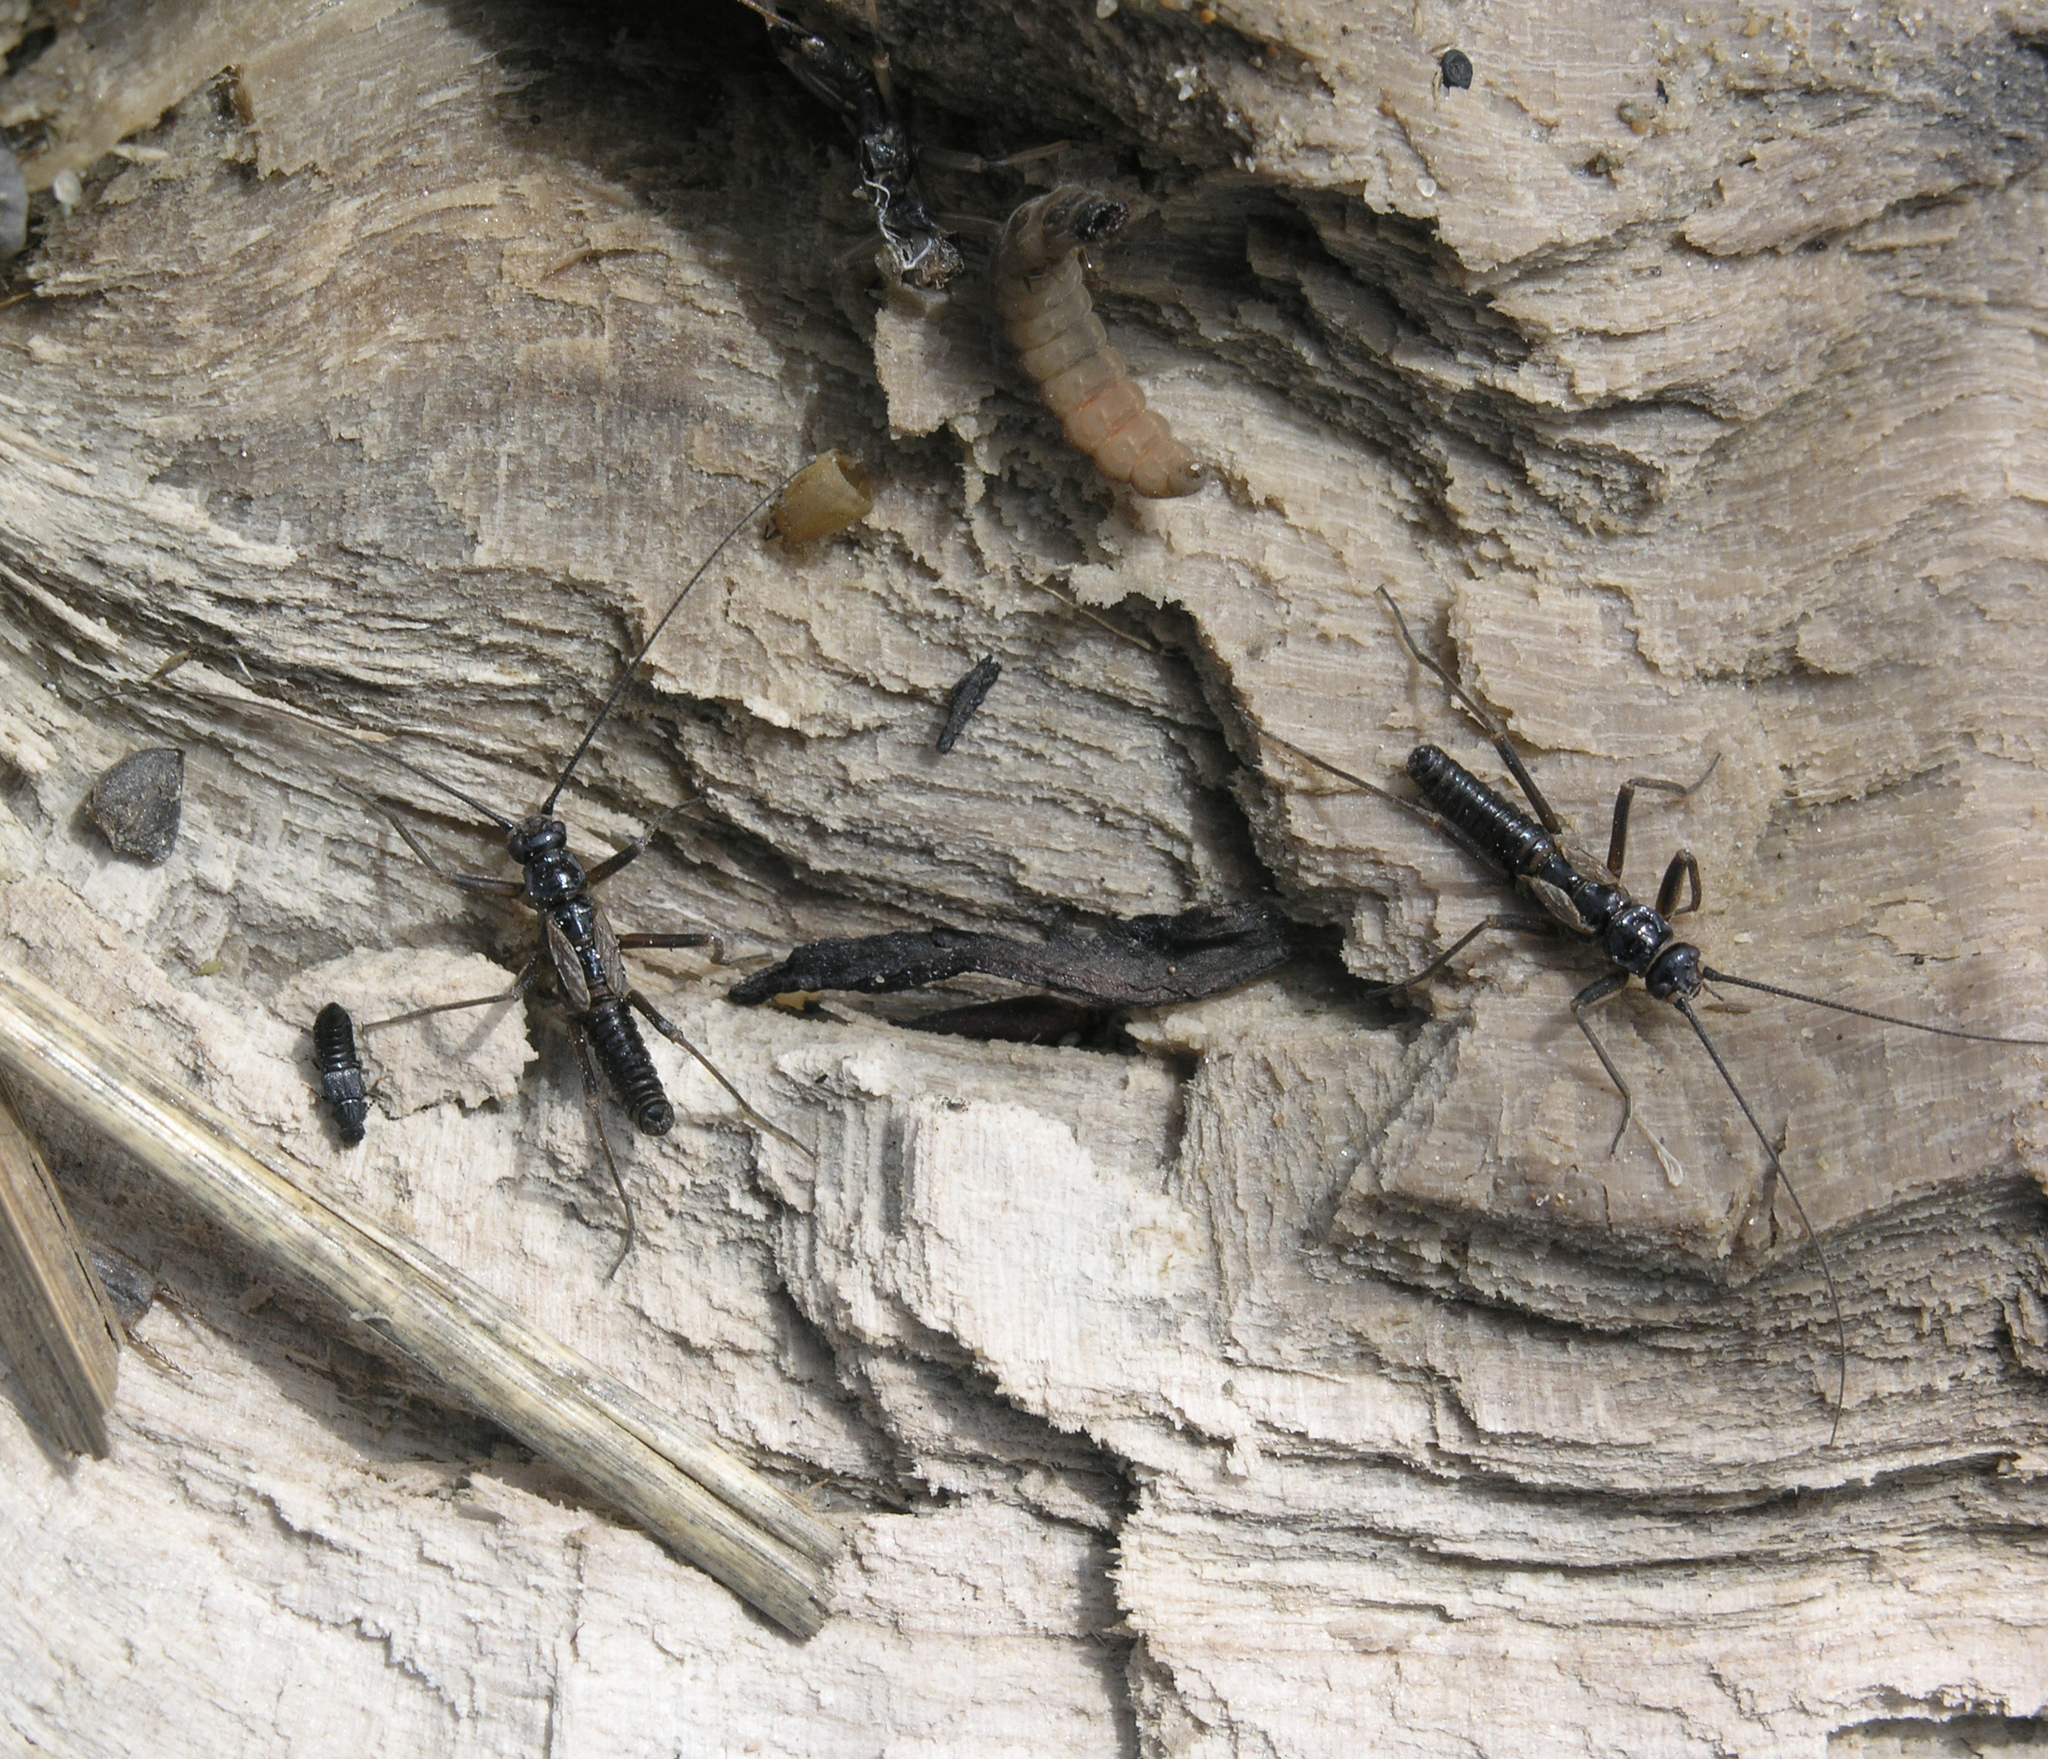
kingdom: Animalia
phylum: Arthropoda
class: Insecta
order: Plecoptera
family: Taeniopterygidae
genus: Taeniopteryx
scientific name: Taeniopteryx araneoides
